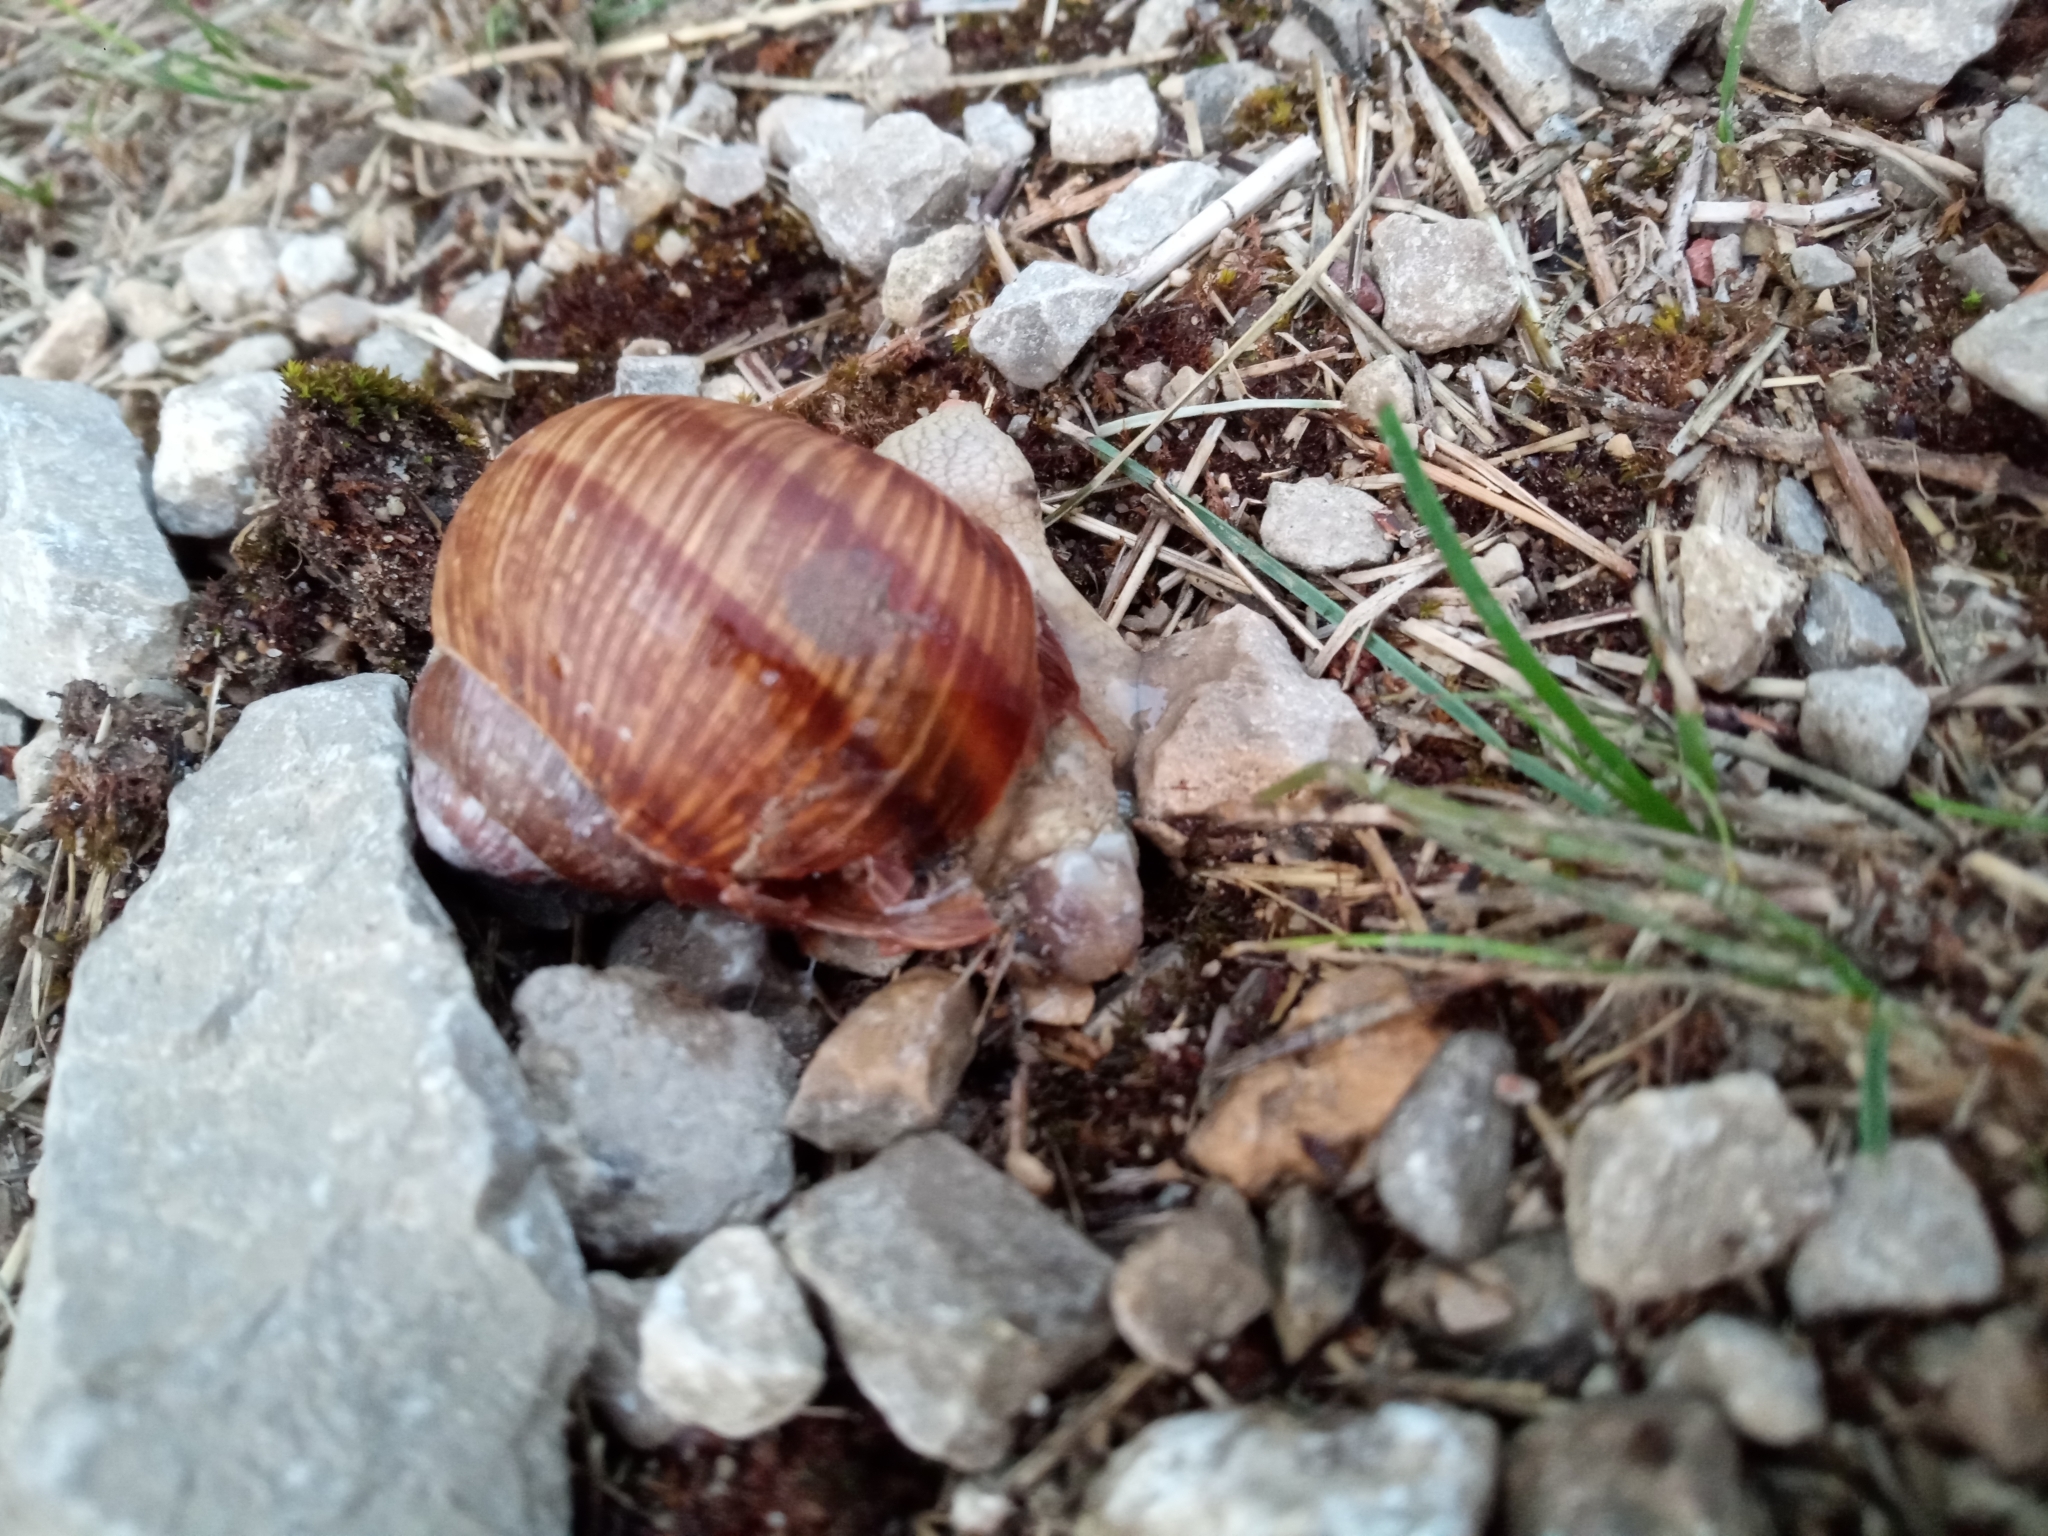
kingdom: Animalia
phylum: Mollusca
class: Gastropoda
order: Stylommatophora
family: Helicidae
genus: Helix
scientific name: Helix pomatia
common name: Roman snail
